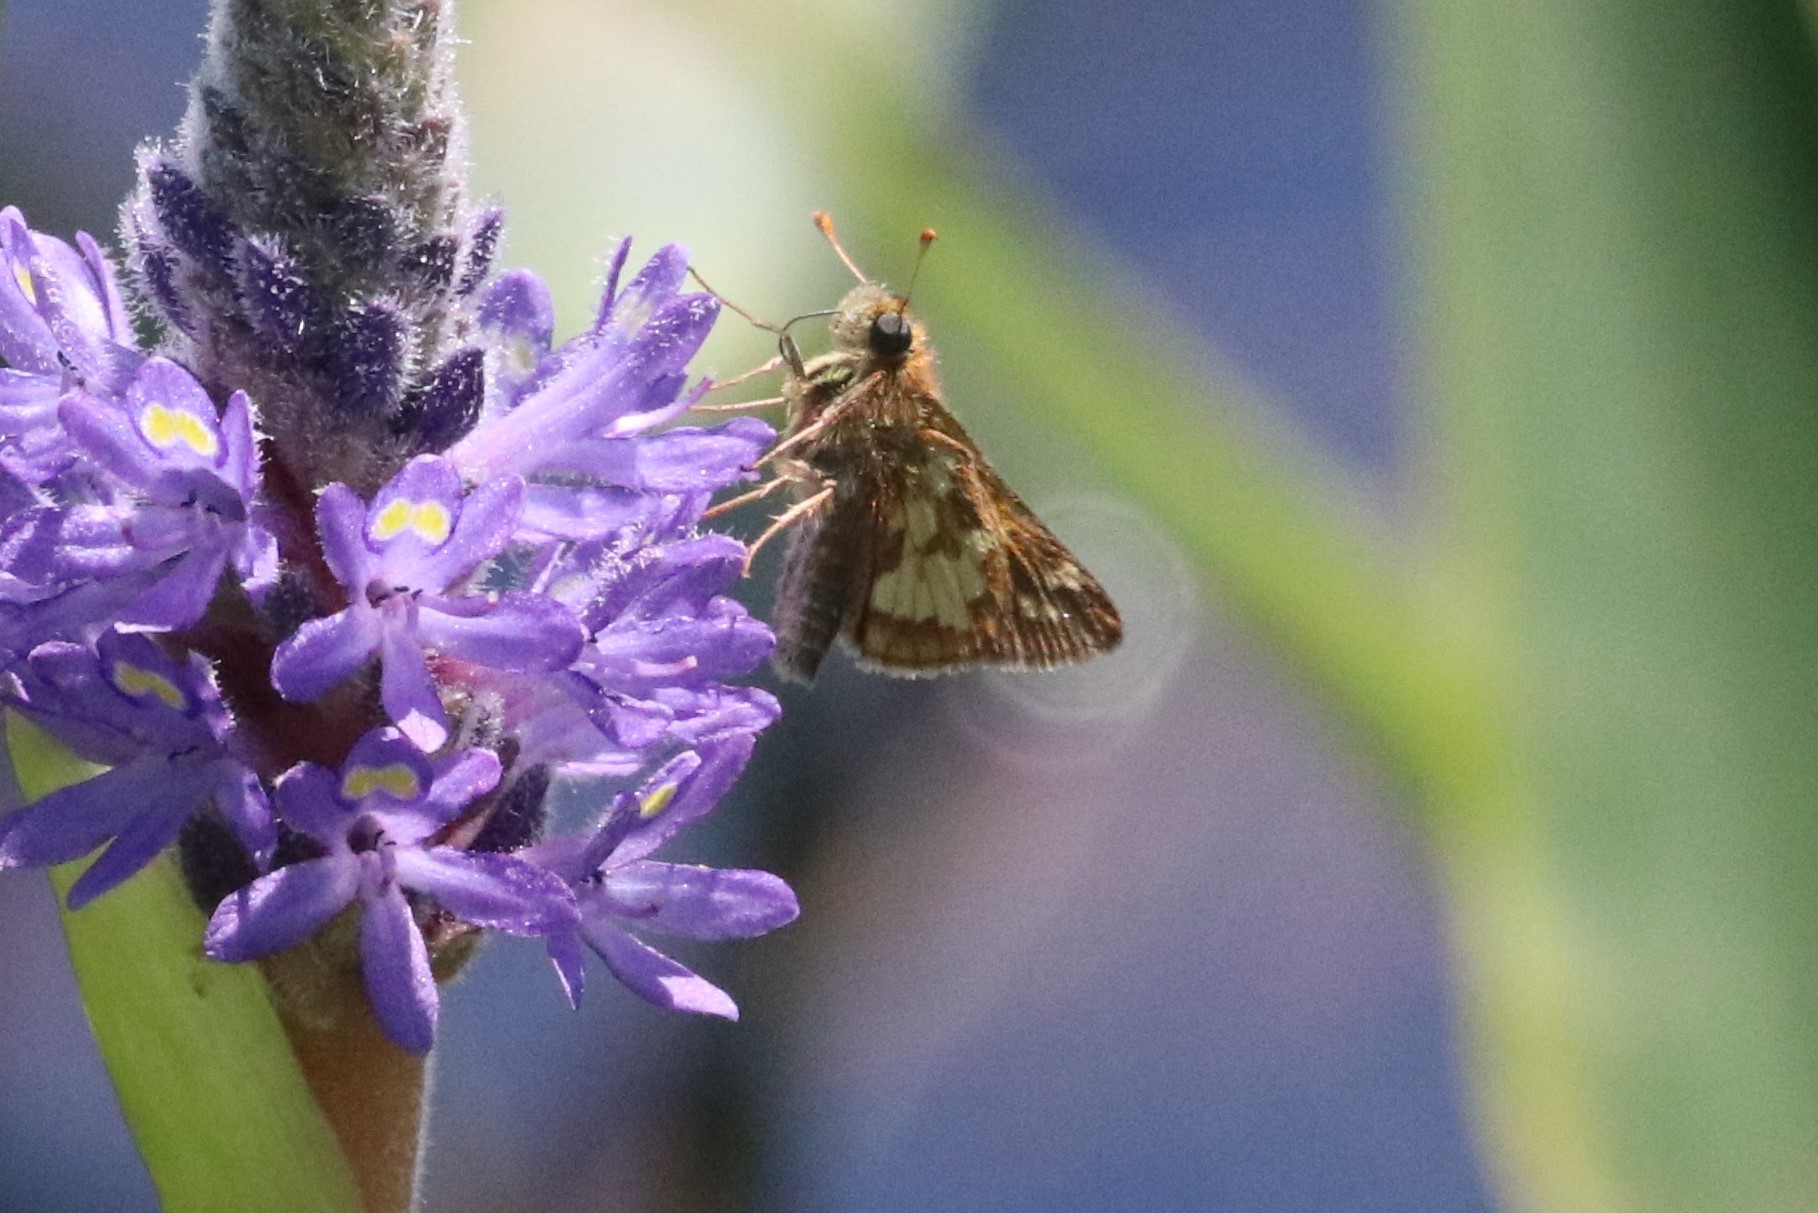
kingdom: Animalia
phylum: Arthropoda
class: Insecta
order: Lepidoptera
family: Hesperiidae
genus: Polites
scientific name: Polites coras
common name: Peck's skipper
